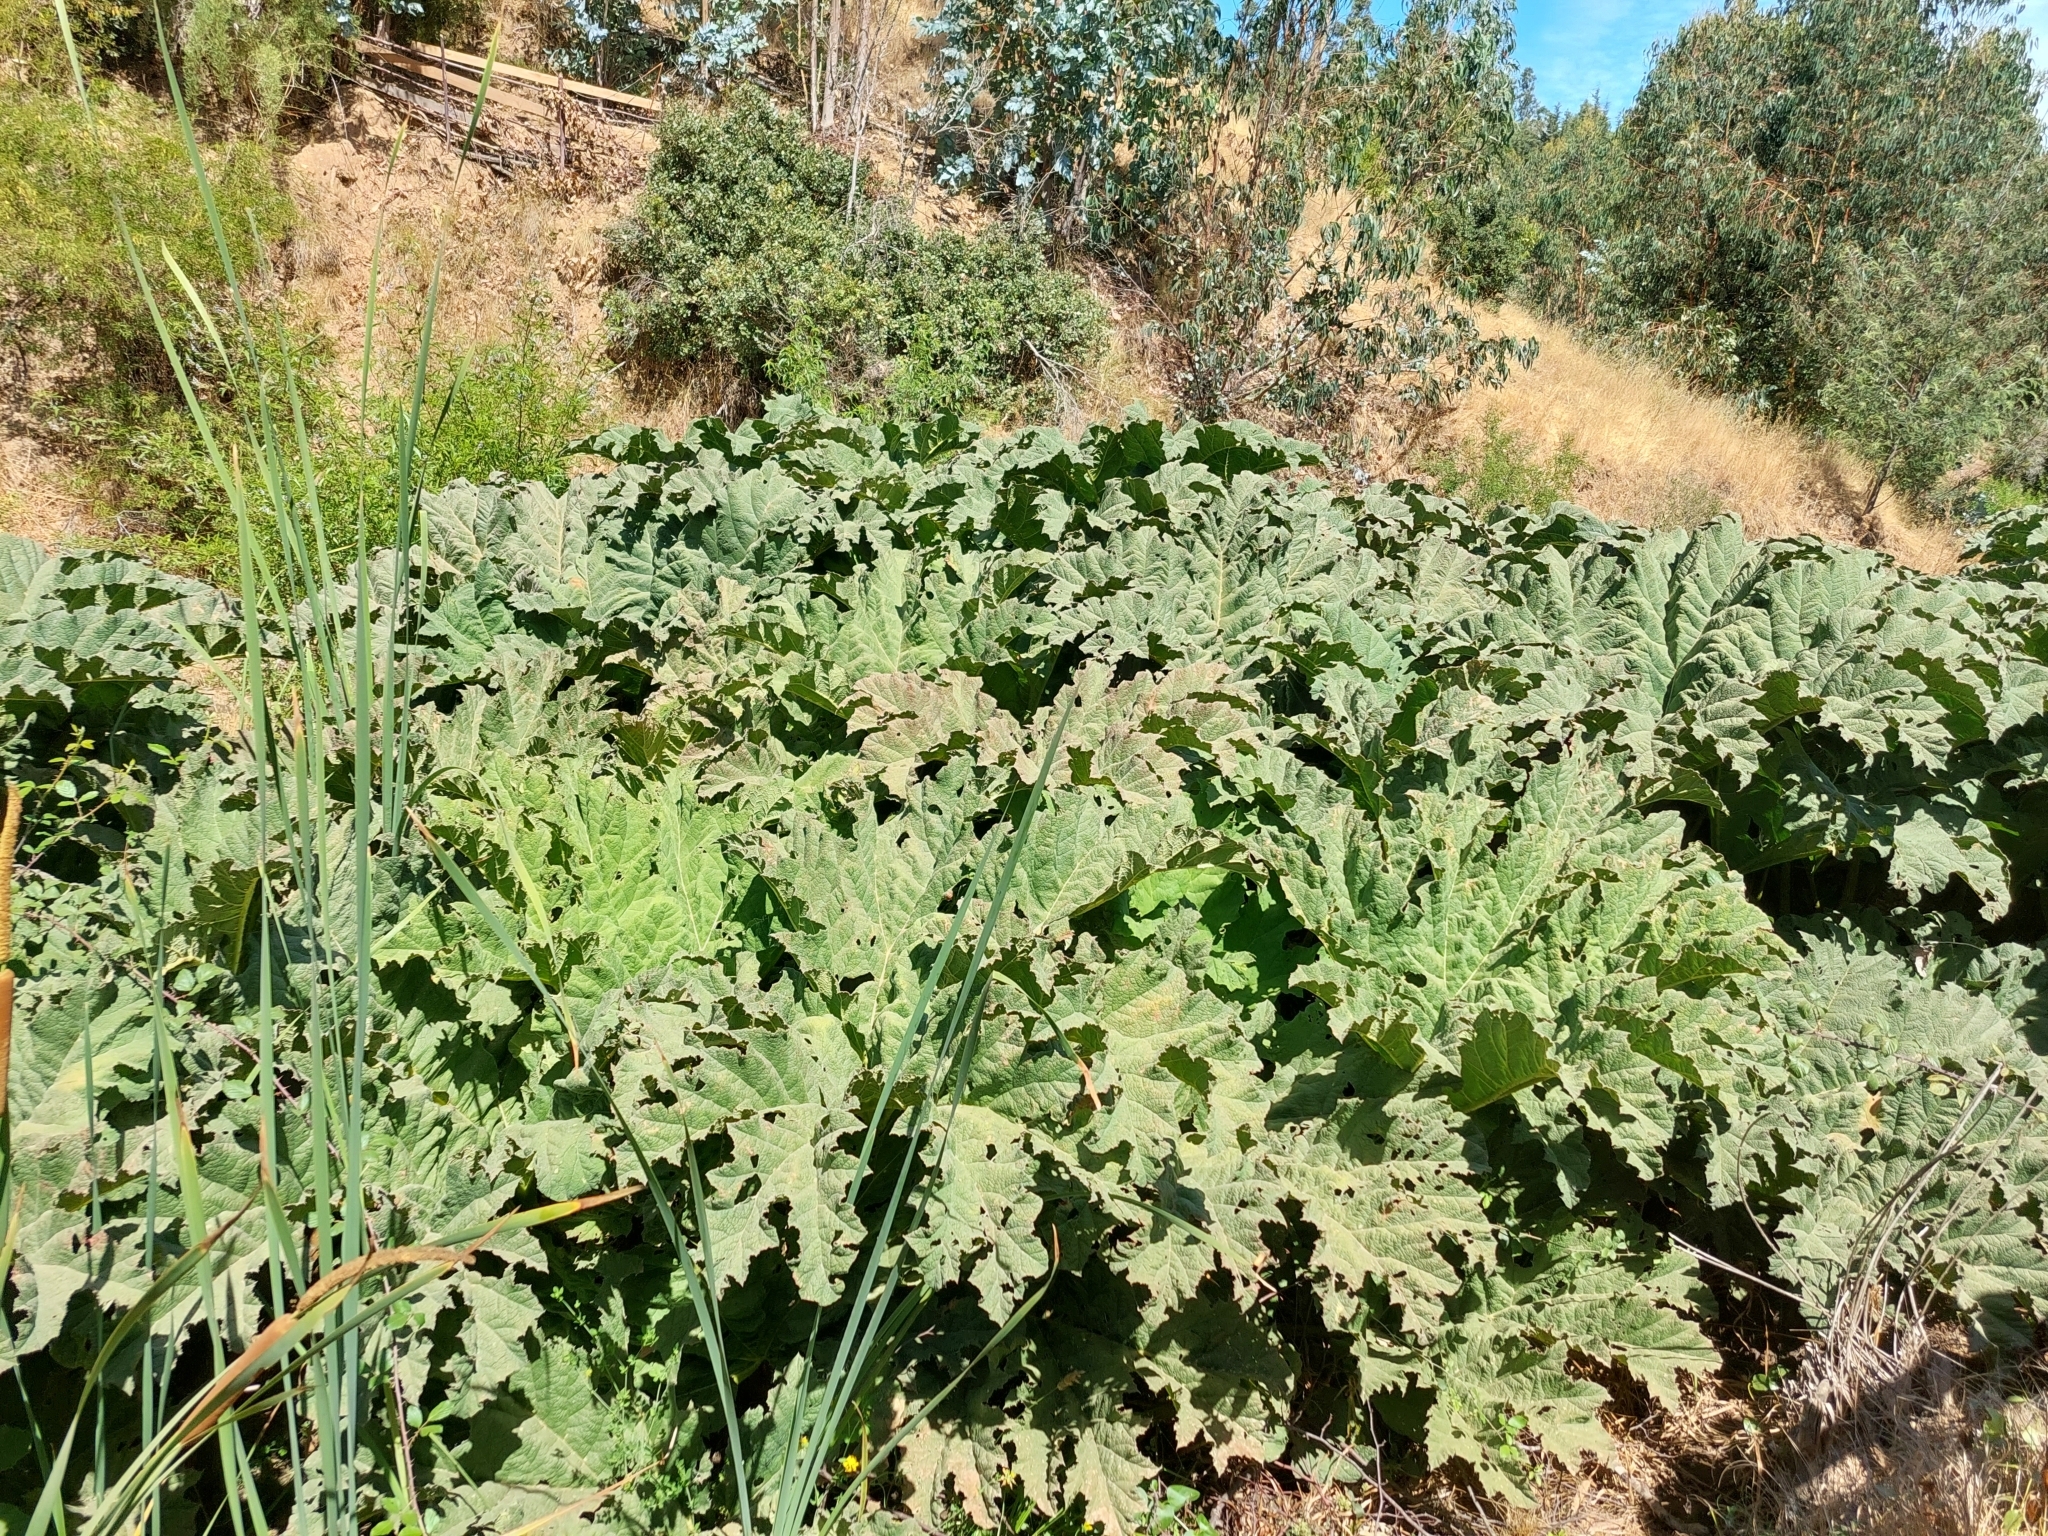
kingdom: Plantae
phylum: Tracheophyta
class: Magnoliopsida
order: Gunnerales
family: Gunneraceae
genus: Gunnera
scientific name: Gunnera tinctoria
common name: Giant-rhubarb
